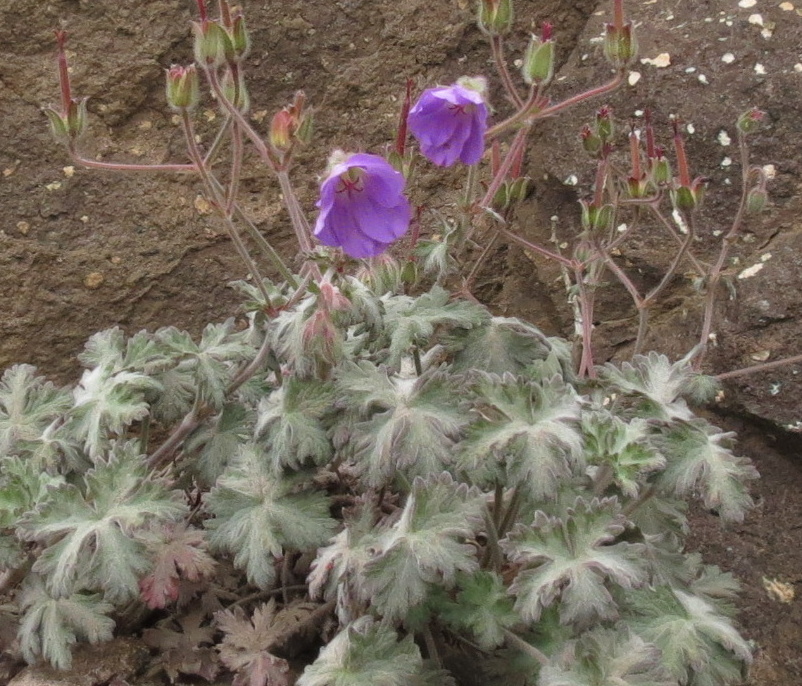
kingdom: Plantae
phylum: Tracheophyta
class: Magnoliopsida
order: Geraniales
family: Geraniaceae
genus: Geranium
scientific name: Geranium pulchrum
